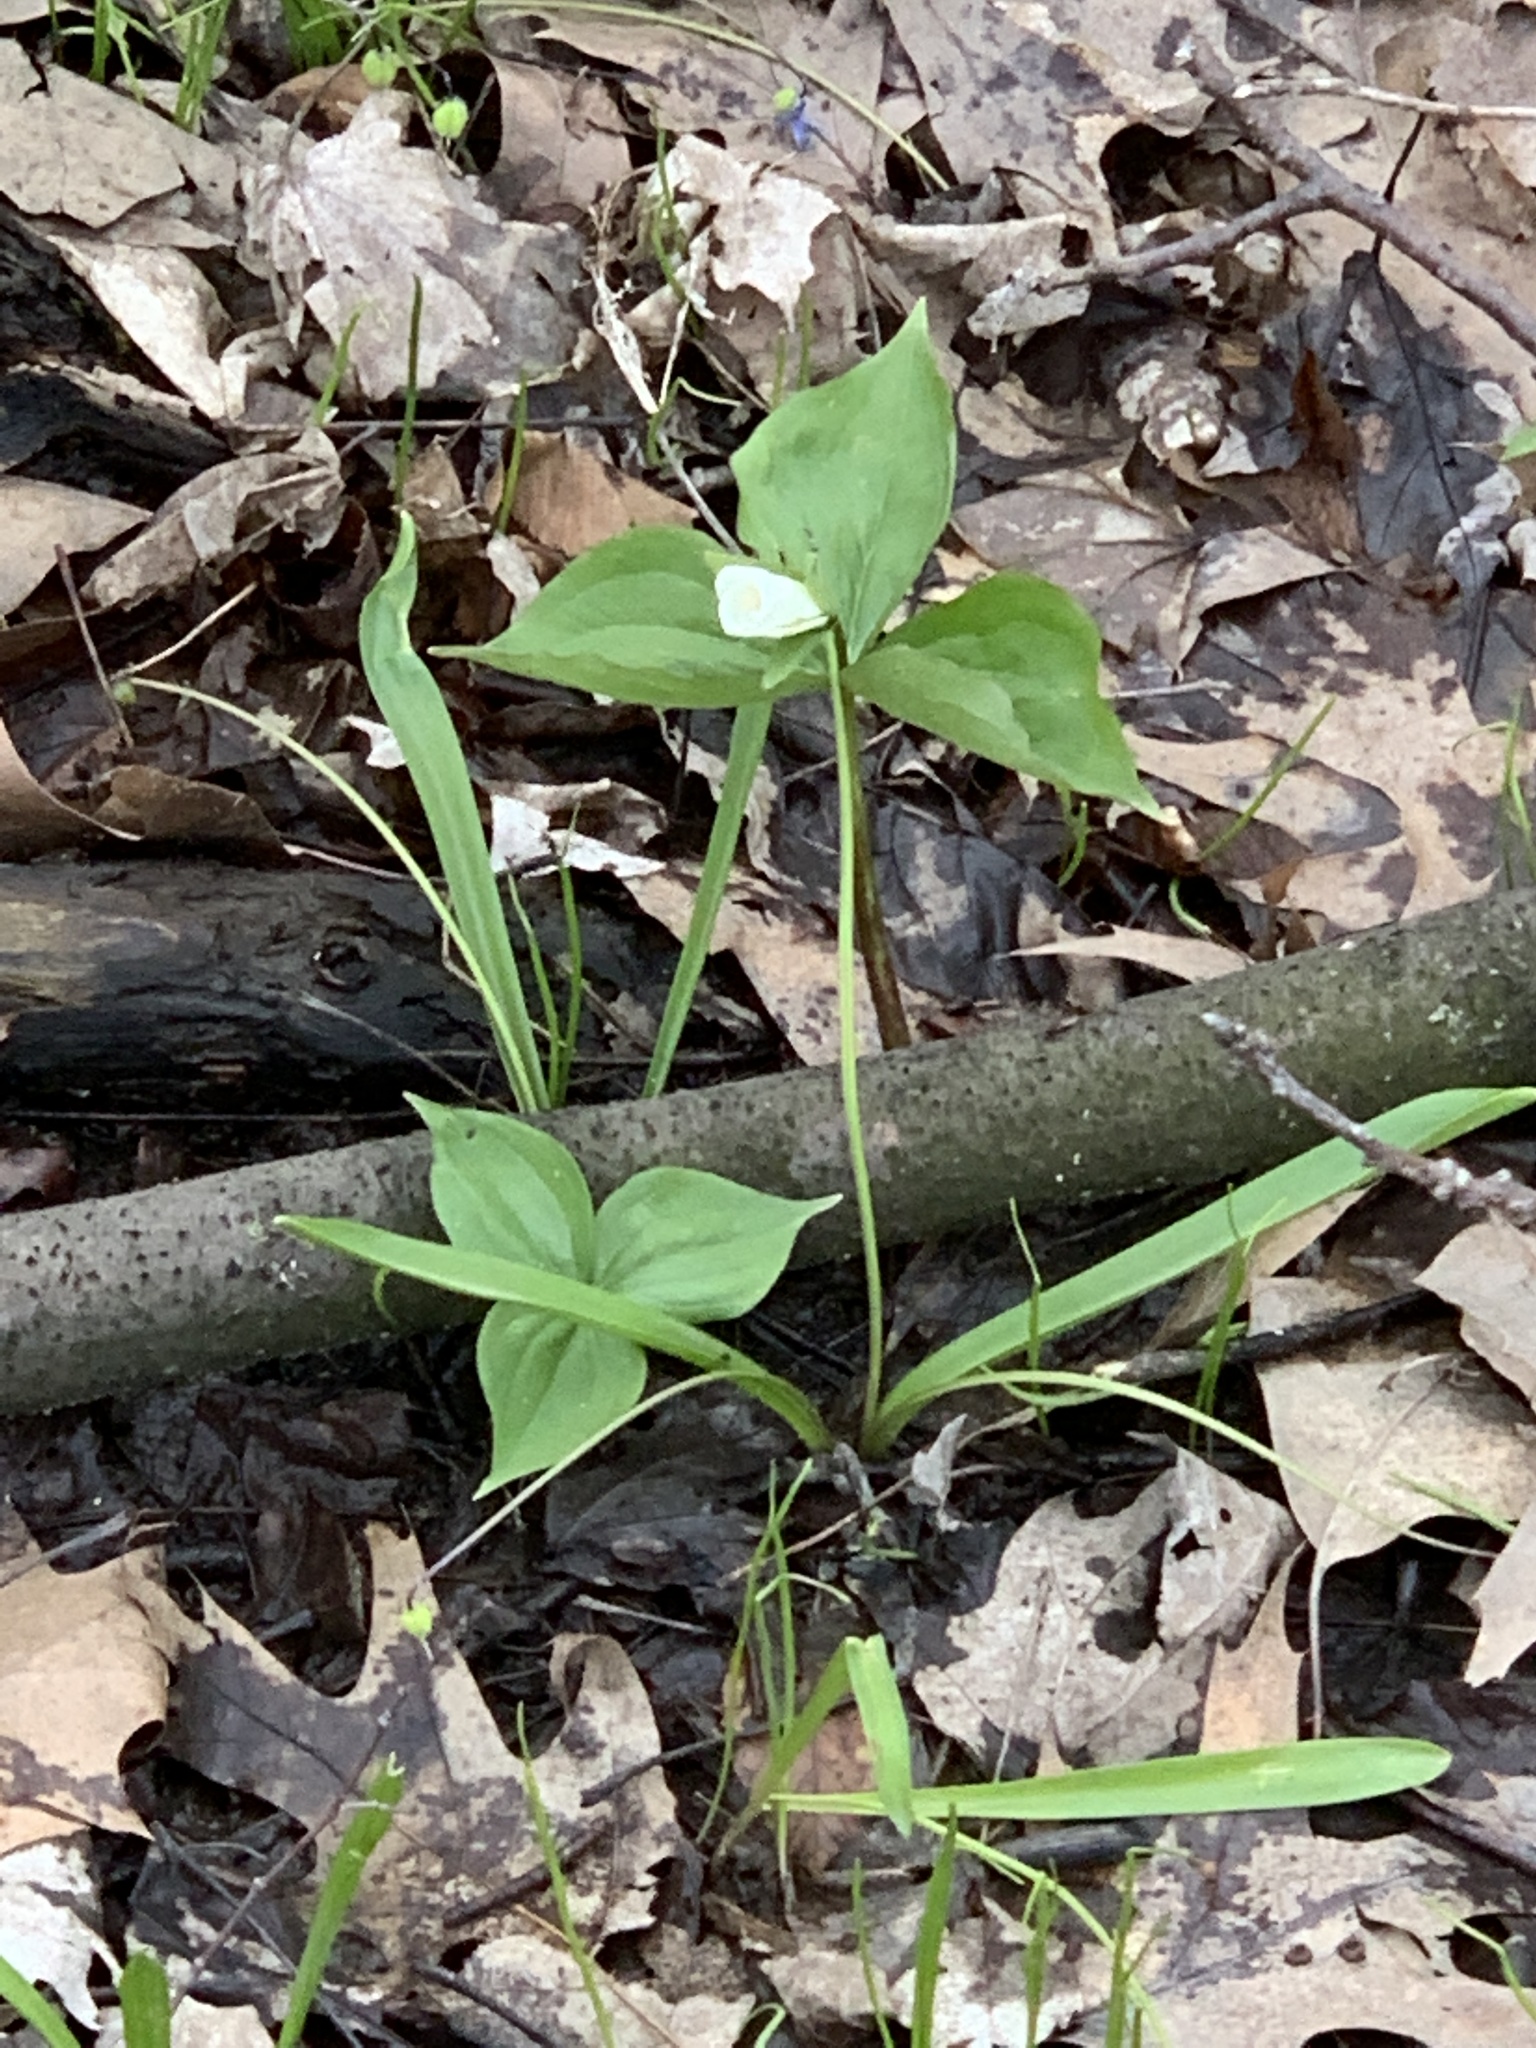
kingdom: Plantae
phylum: Tracheophyta
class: Liliopsida
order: Liliales
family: Melanthiaceae
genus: Trillium
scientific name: Trillium grandiflorum
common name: Great white trillium
